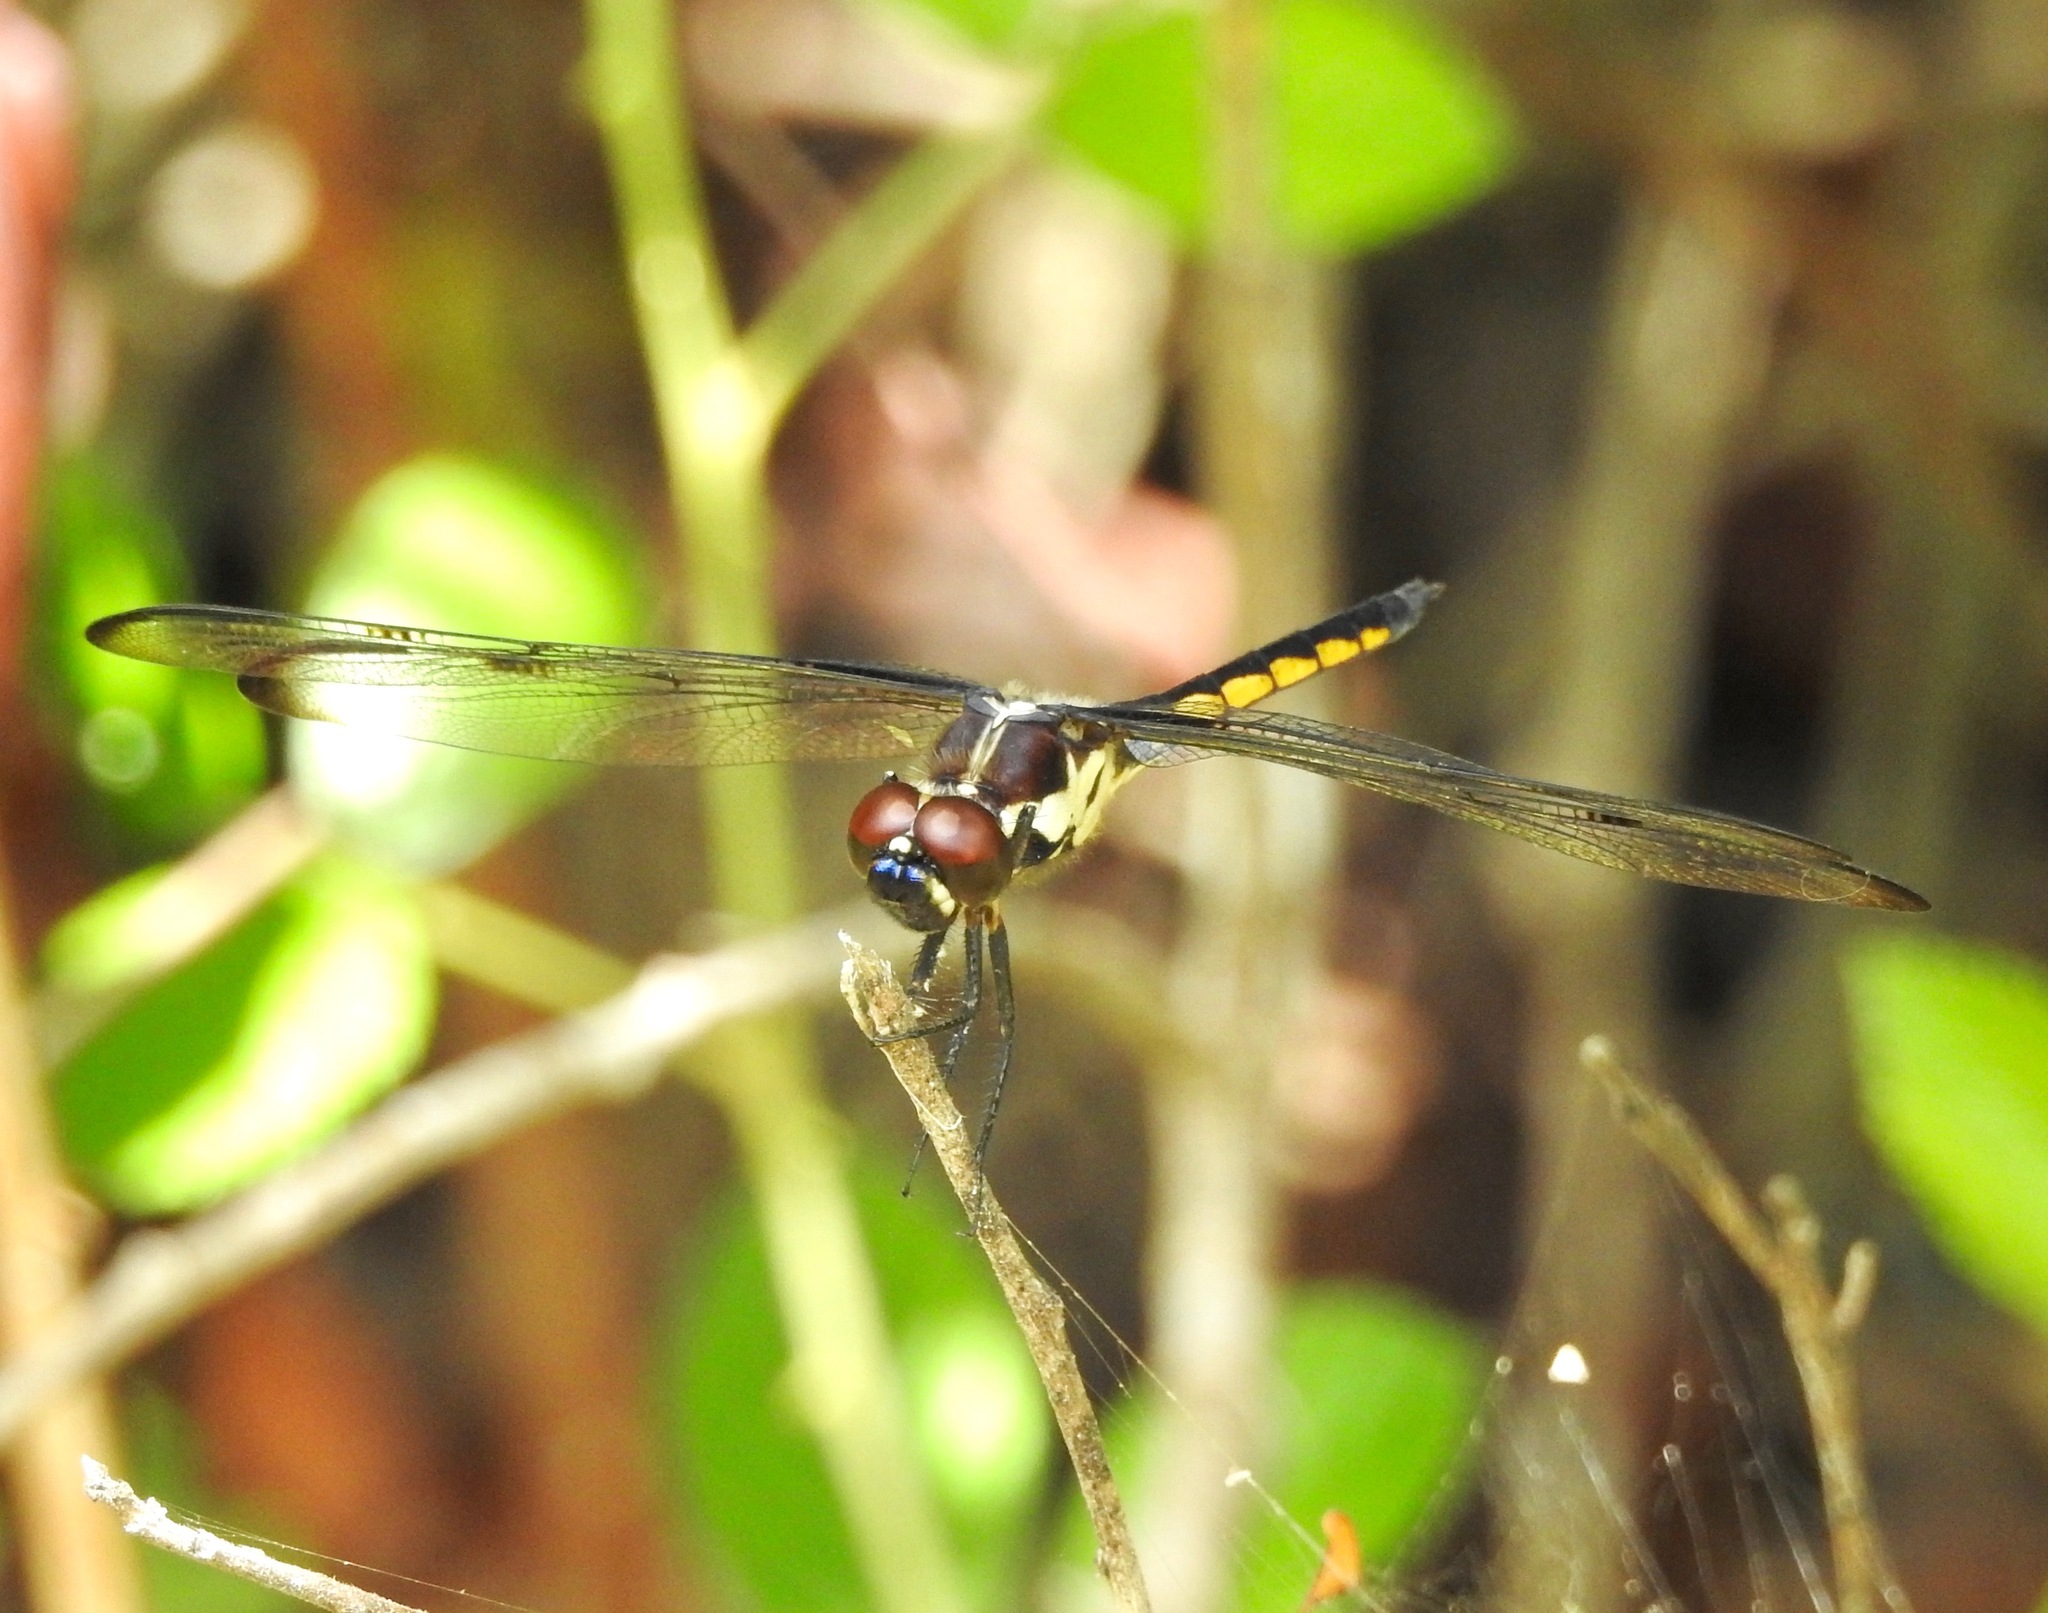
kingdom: Animalia
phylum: Arthropoda
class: Insecta
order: Odonata
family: Libellulidae
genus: Libellula
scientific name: Libellula axilena
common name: Bar-winged skimmer
